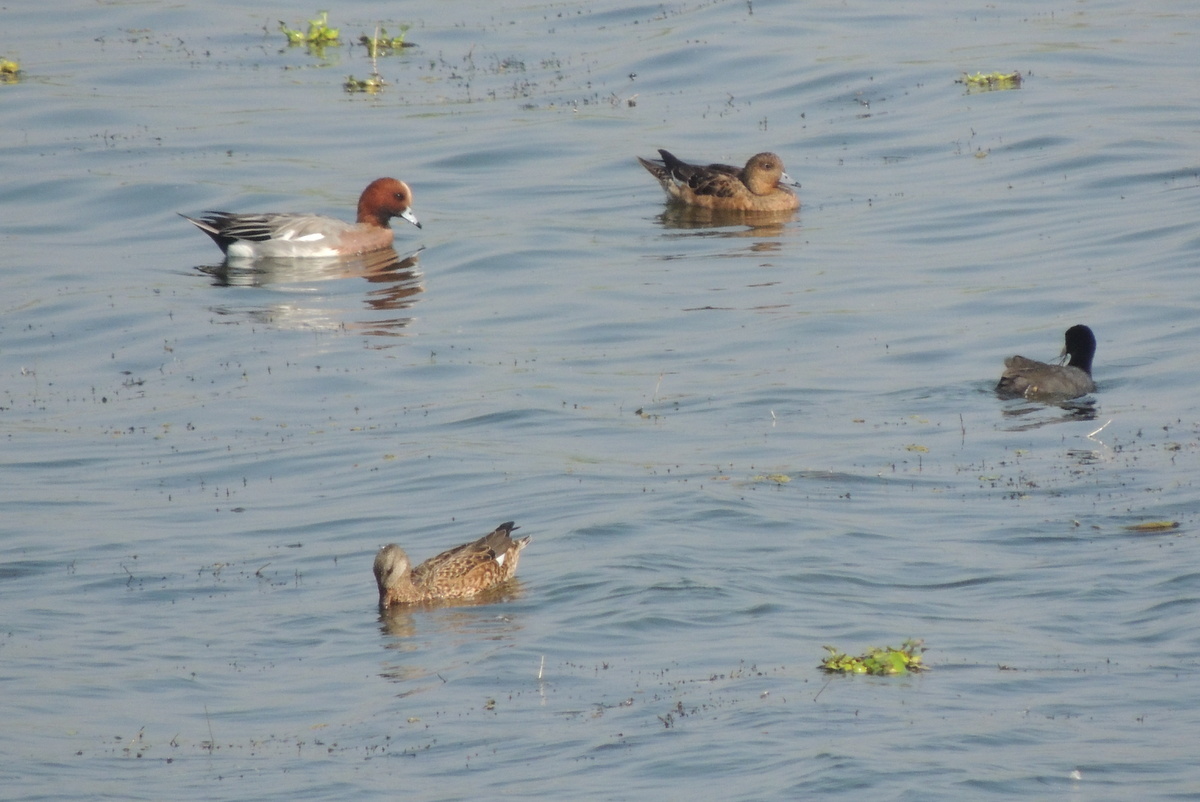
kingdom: Animalia
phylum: Chordata
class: Aves
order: Anseriformes
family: Anatidae
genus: Mareca
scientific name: Mareca penelope
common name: Eurasian wigeon
